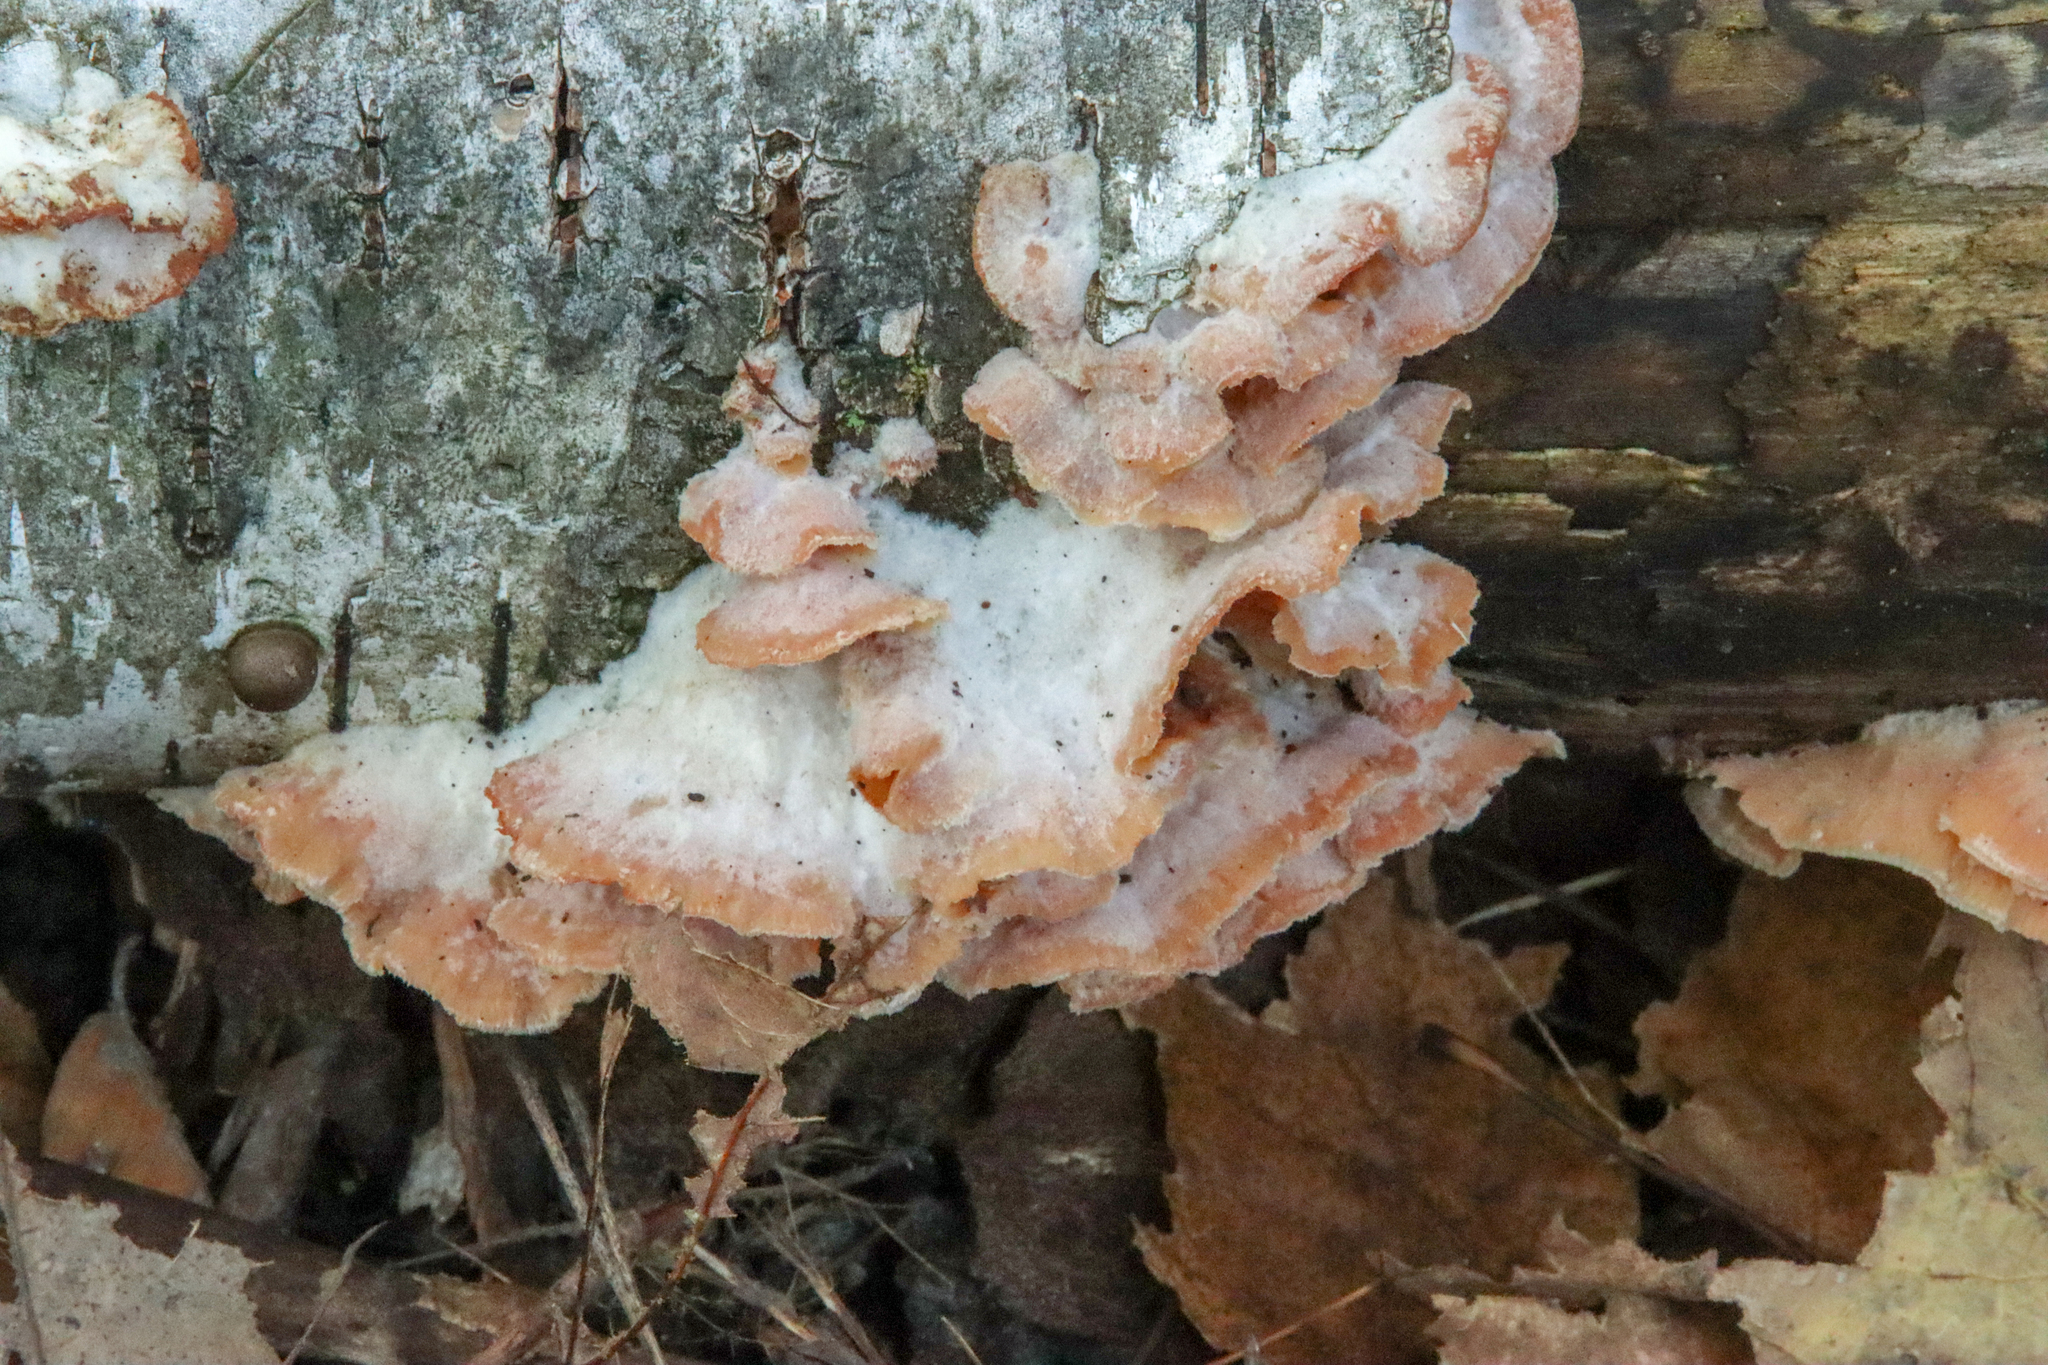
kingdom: Fungi
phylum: Basidiomycota
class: Agaricomycetes
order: Polyporales
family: Meruliaceae
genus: Phlebia
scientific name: Phlebia tremellosa
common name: Jelly rot
